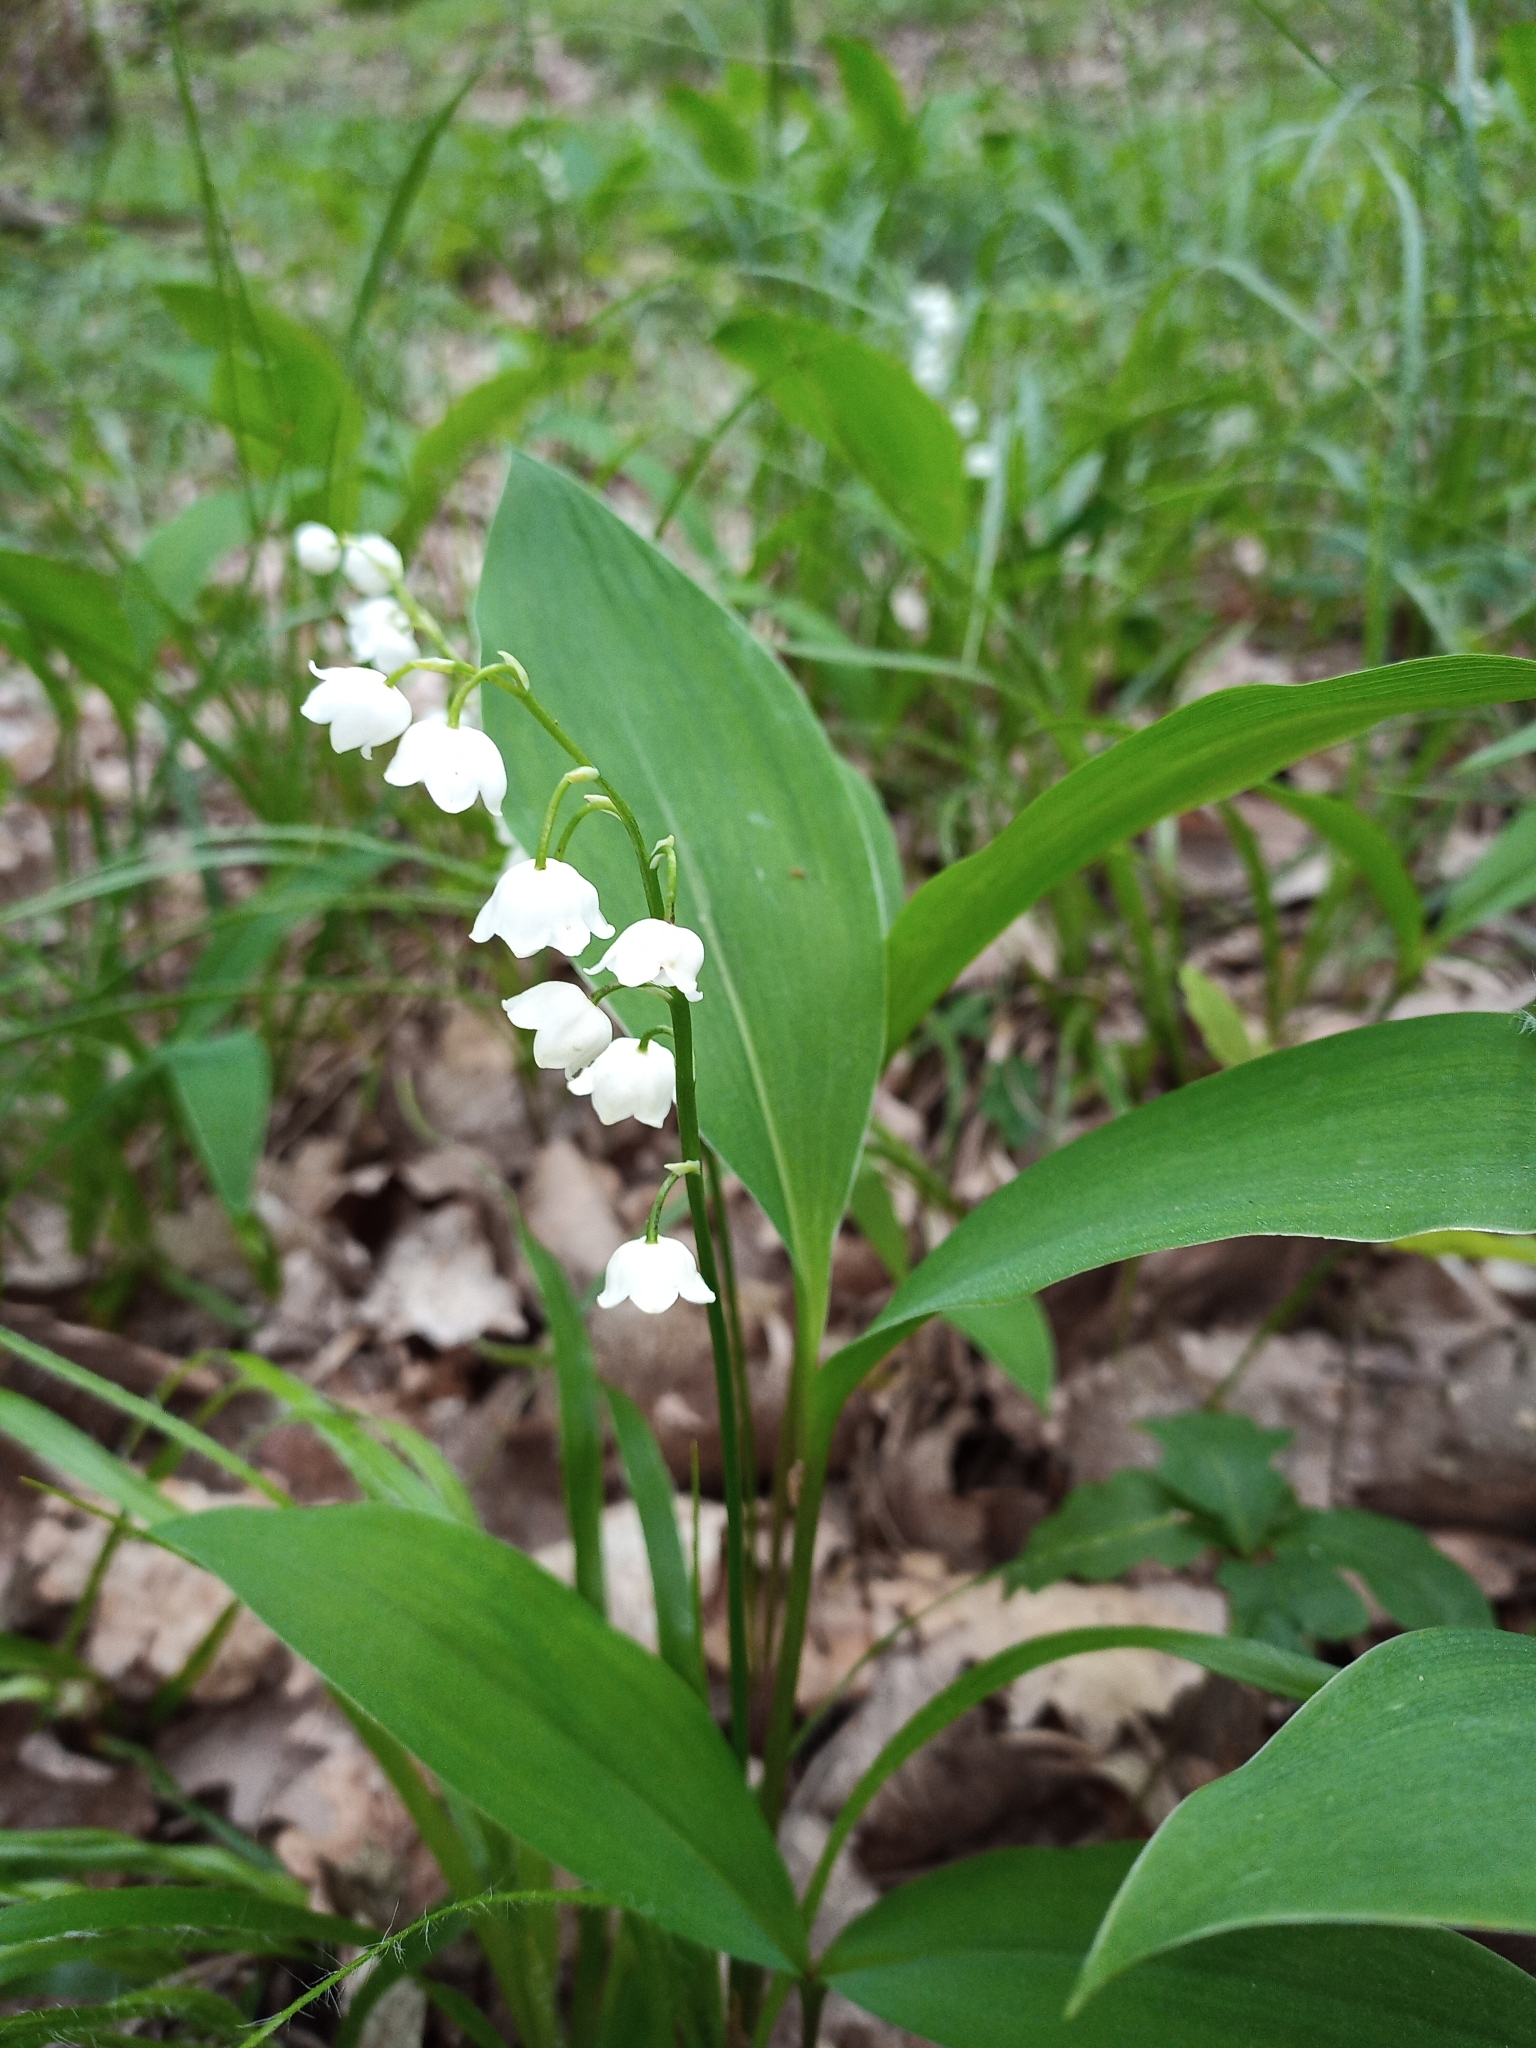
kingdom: Plantae
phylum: Tracheophyta
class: Liliopsida
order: Asparagales
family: Asparagaceae
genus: Convallaria
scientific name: Convallaria majalis
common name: Lily-of-the-valley
